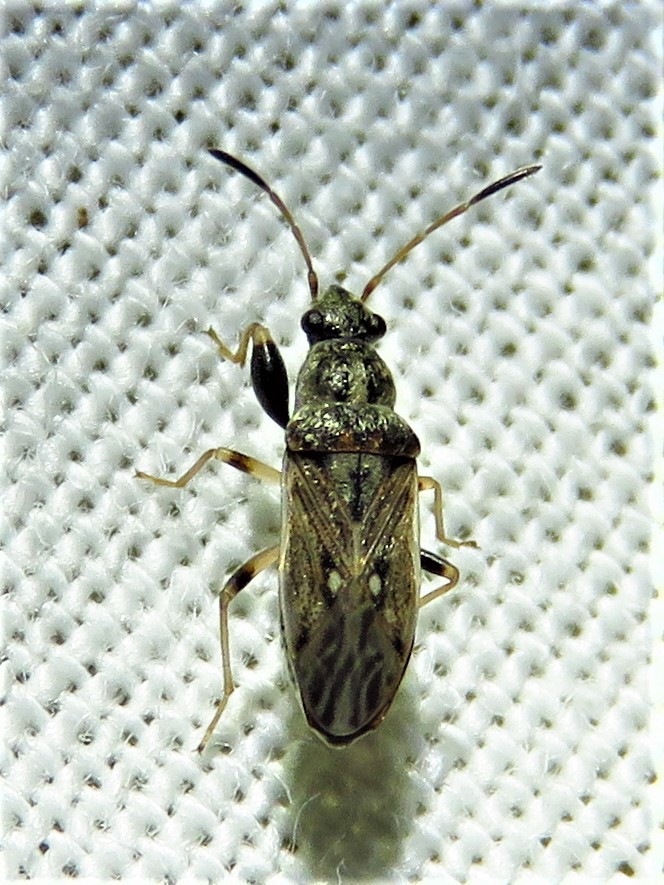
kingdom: Animalia
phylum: Arthropoda
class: Insecta
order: Hemiptera
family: Rhyparochromidae
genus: Pseudopachybrachius
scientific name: Pseudopachybrachius basalis
